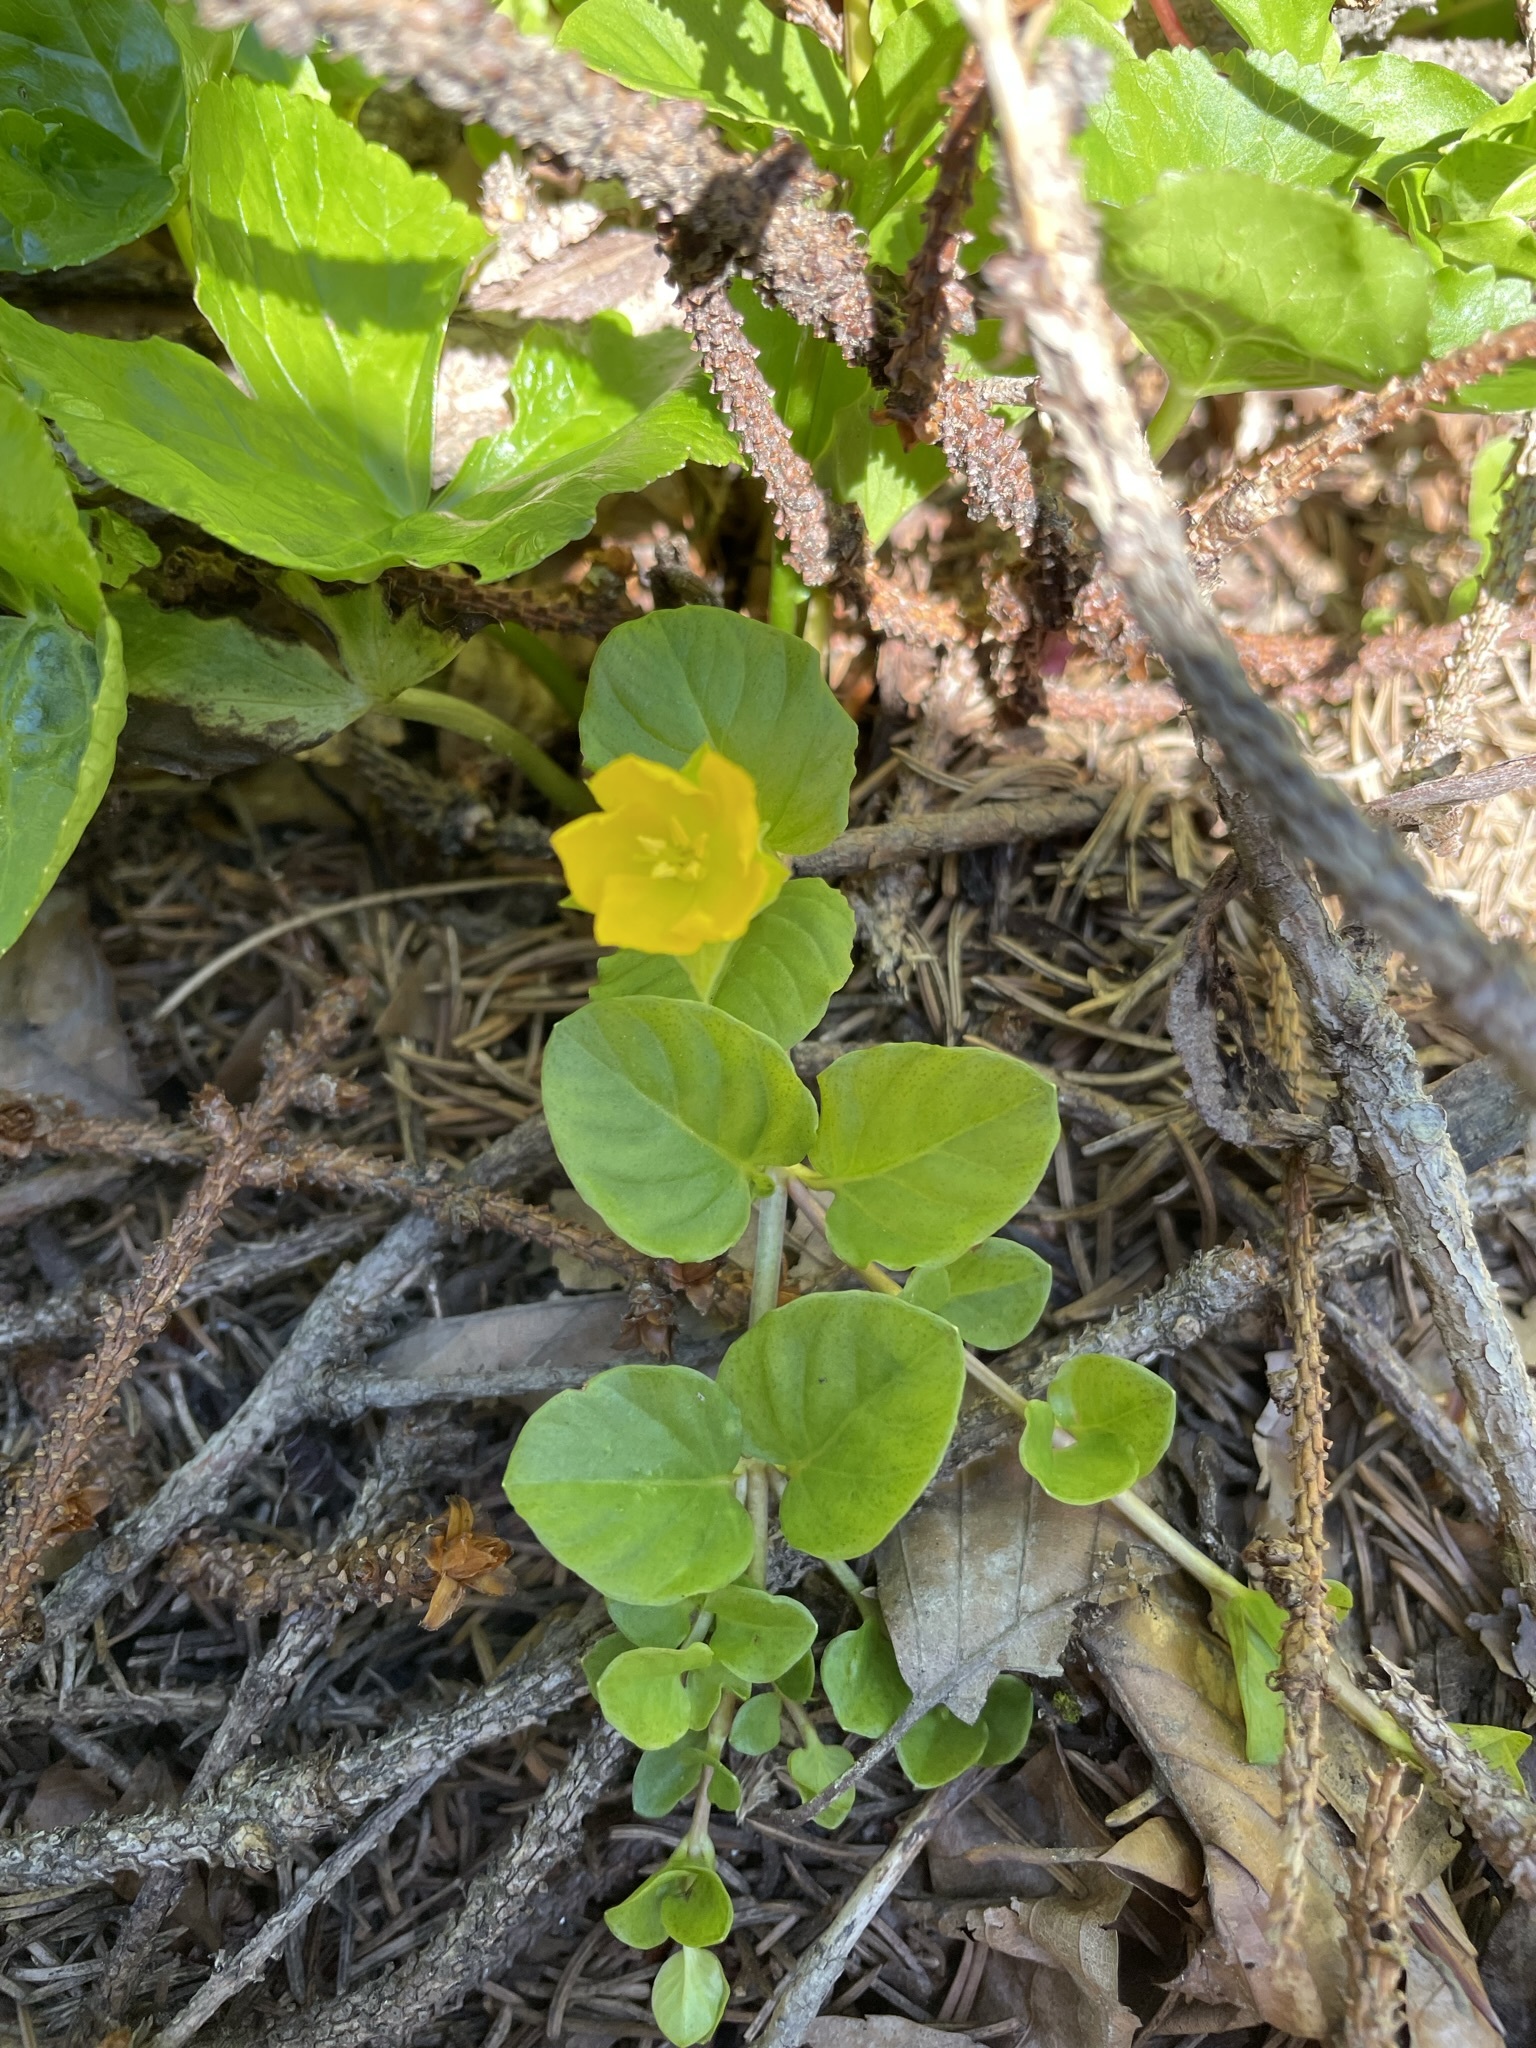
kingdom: Plantae
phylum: Tracheophyta
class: Magnoliopsida
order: Ericales
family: Primulaceae
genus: Lysimachia
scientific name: Lysimachia nummularia
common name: Moneywort
